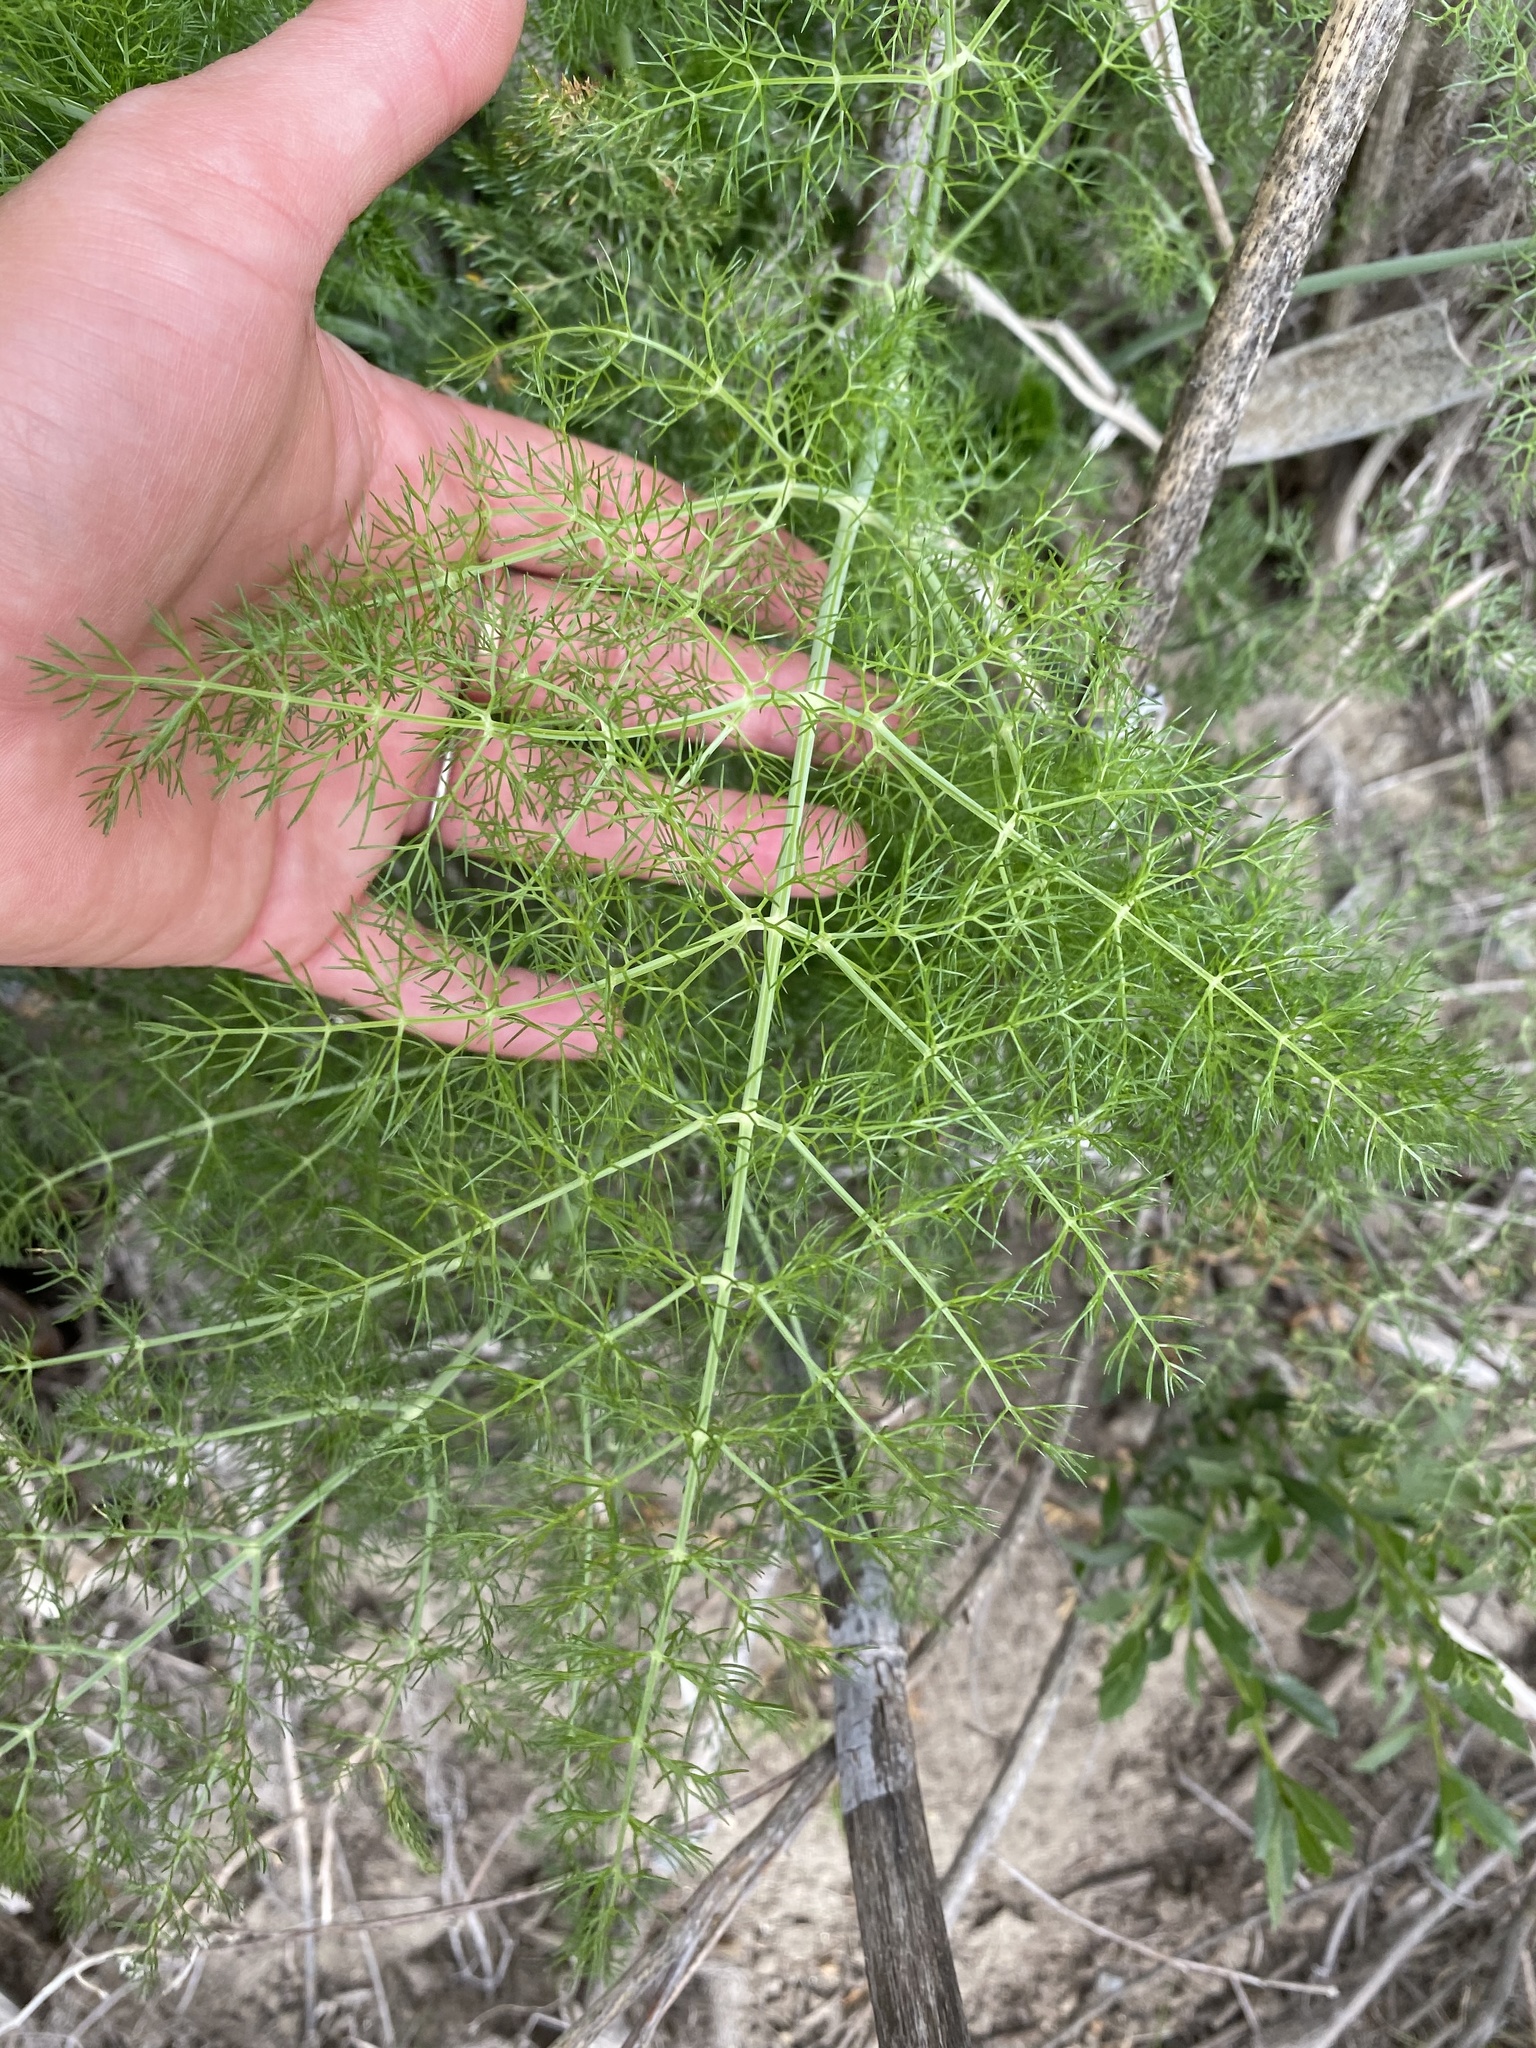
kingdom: Plantae
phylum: Tracheophyta
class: Magnoliopsida
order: Apiales
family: Apiaceae
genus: Foeniculum
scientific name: Foeniculum vulgare
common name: Fennel
